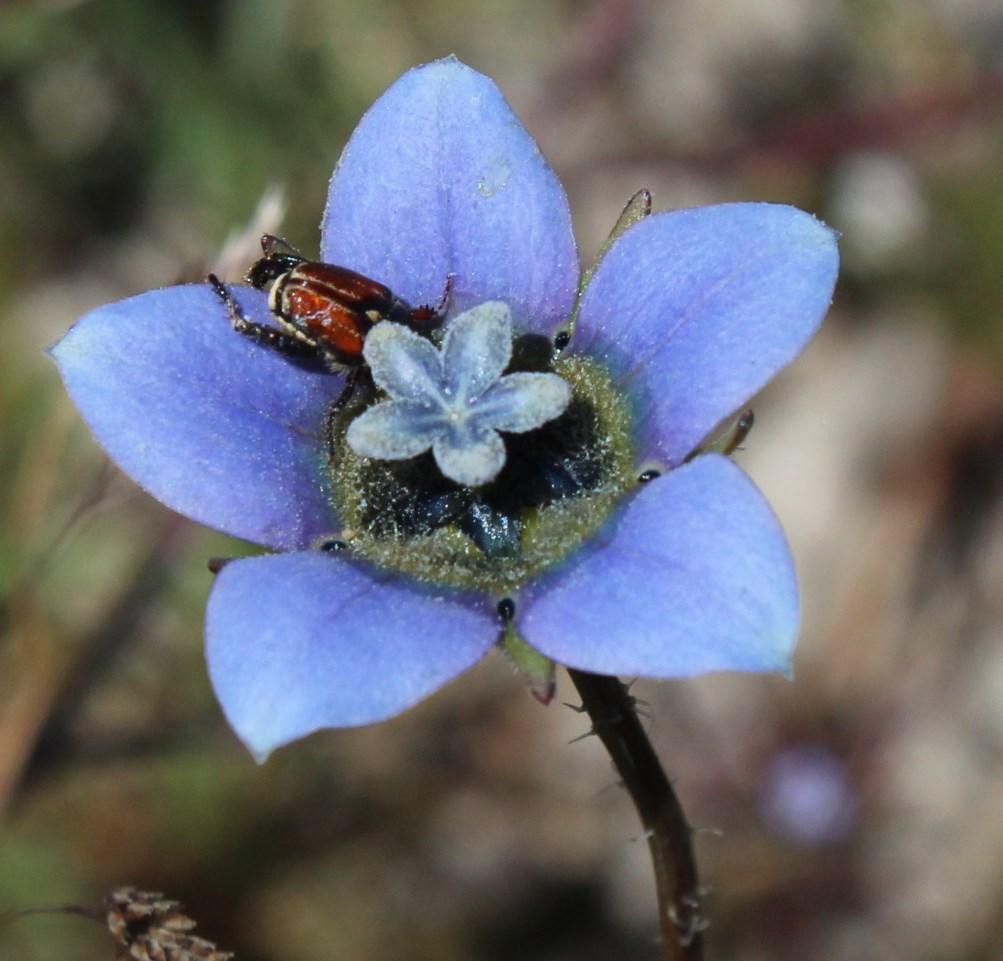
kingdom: Plantae
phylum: Tracheophyta
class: Magnoliopsida
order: Asterales
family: Campanulaceae
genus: Wahlenbergia
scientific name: Wahlenbergia capensis
